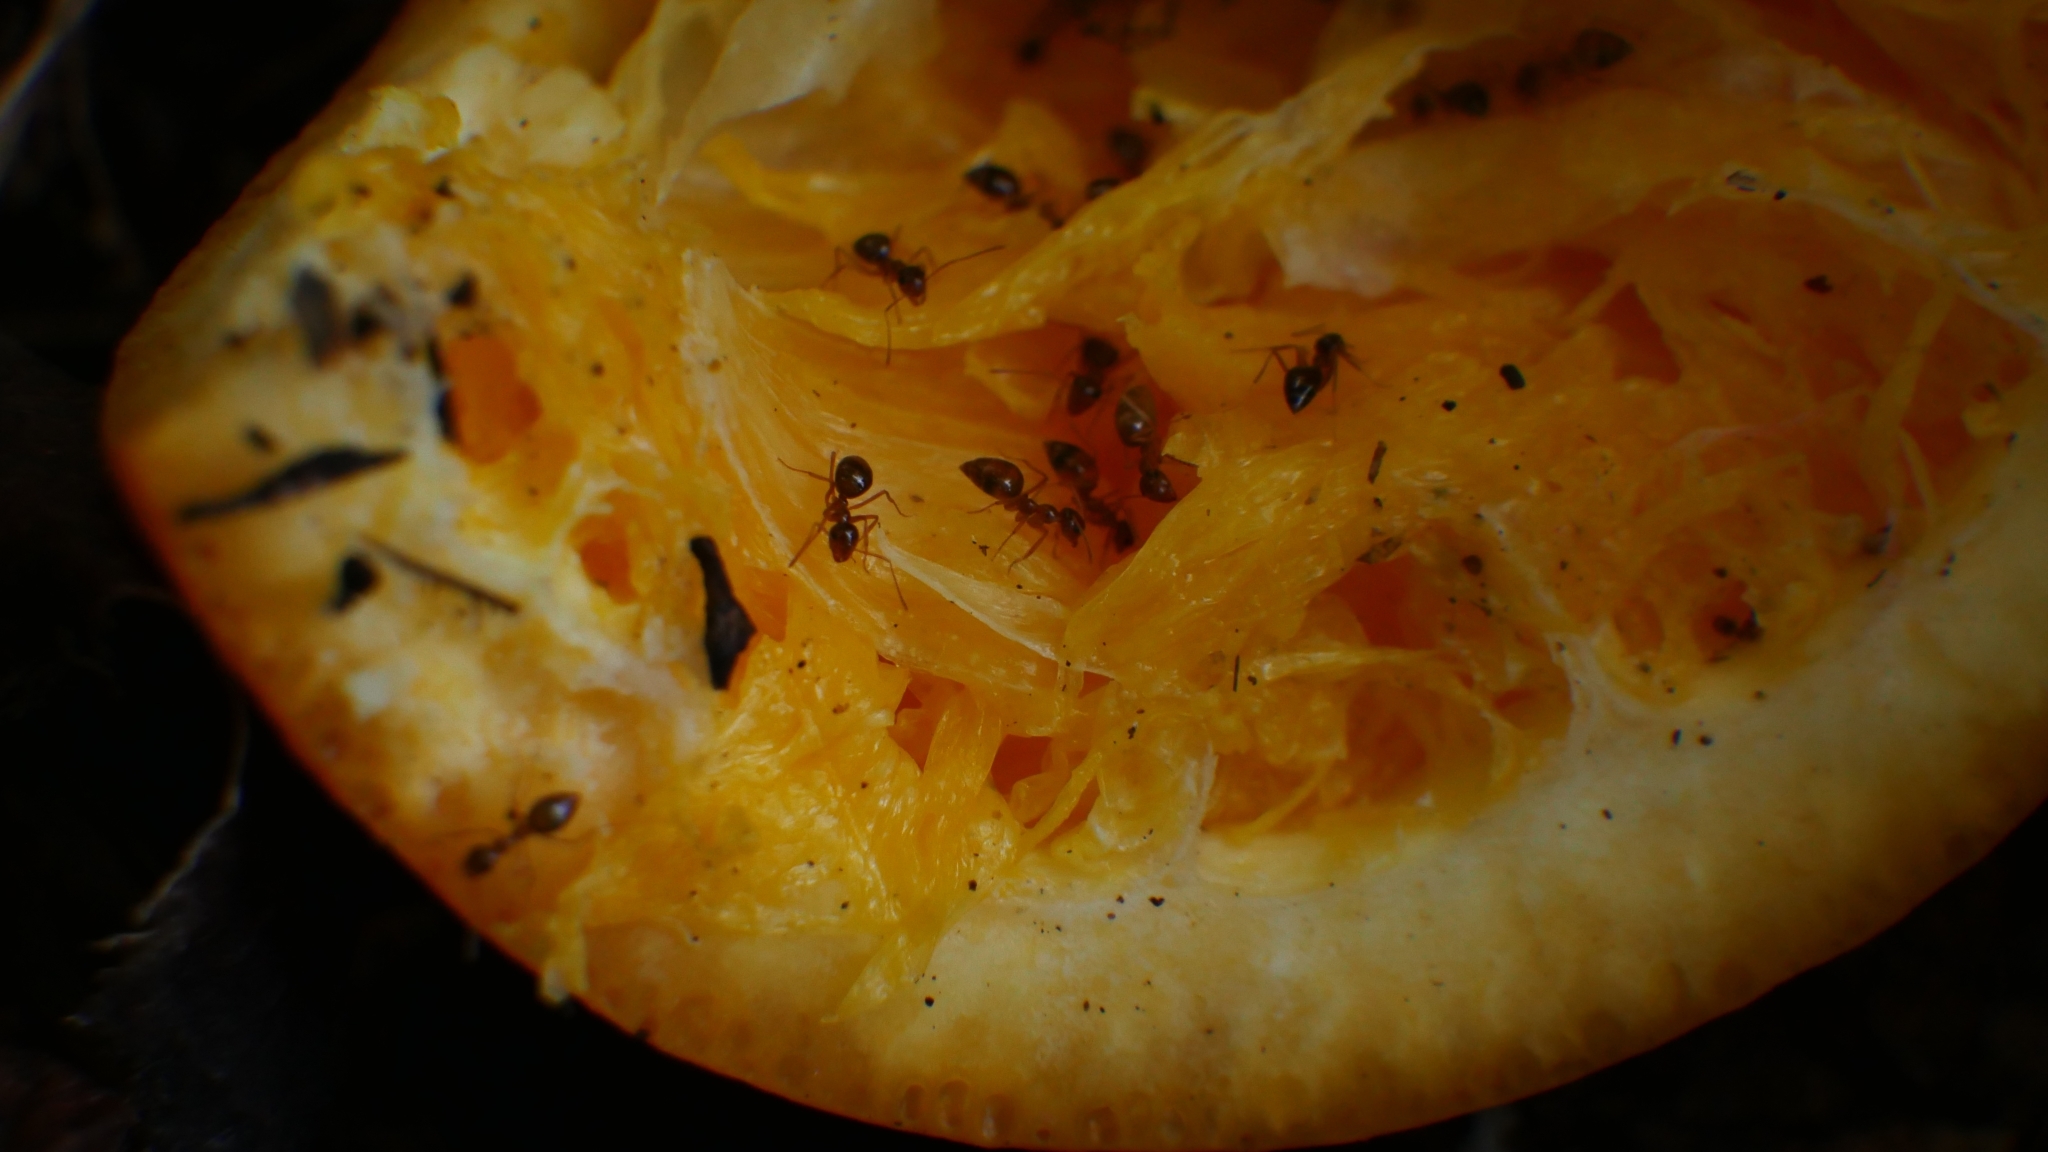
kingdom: Animalia
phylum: Arthropoda
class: Insecta
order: Hymenoptera
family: Formicidae
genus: Prenolepis
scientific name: Prenolepis imparis
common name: Small honey ant
